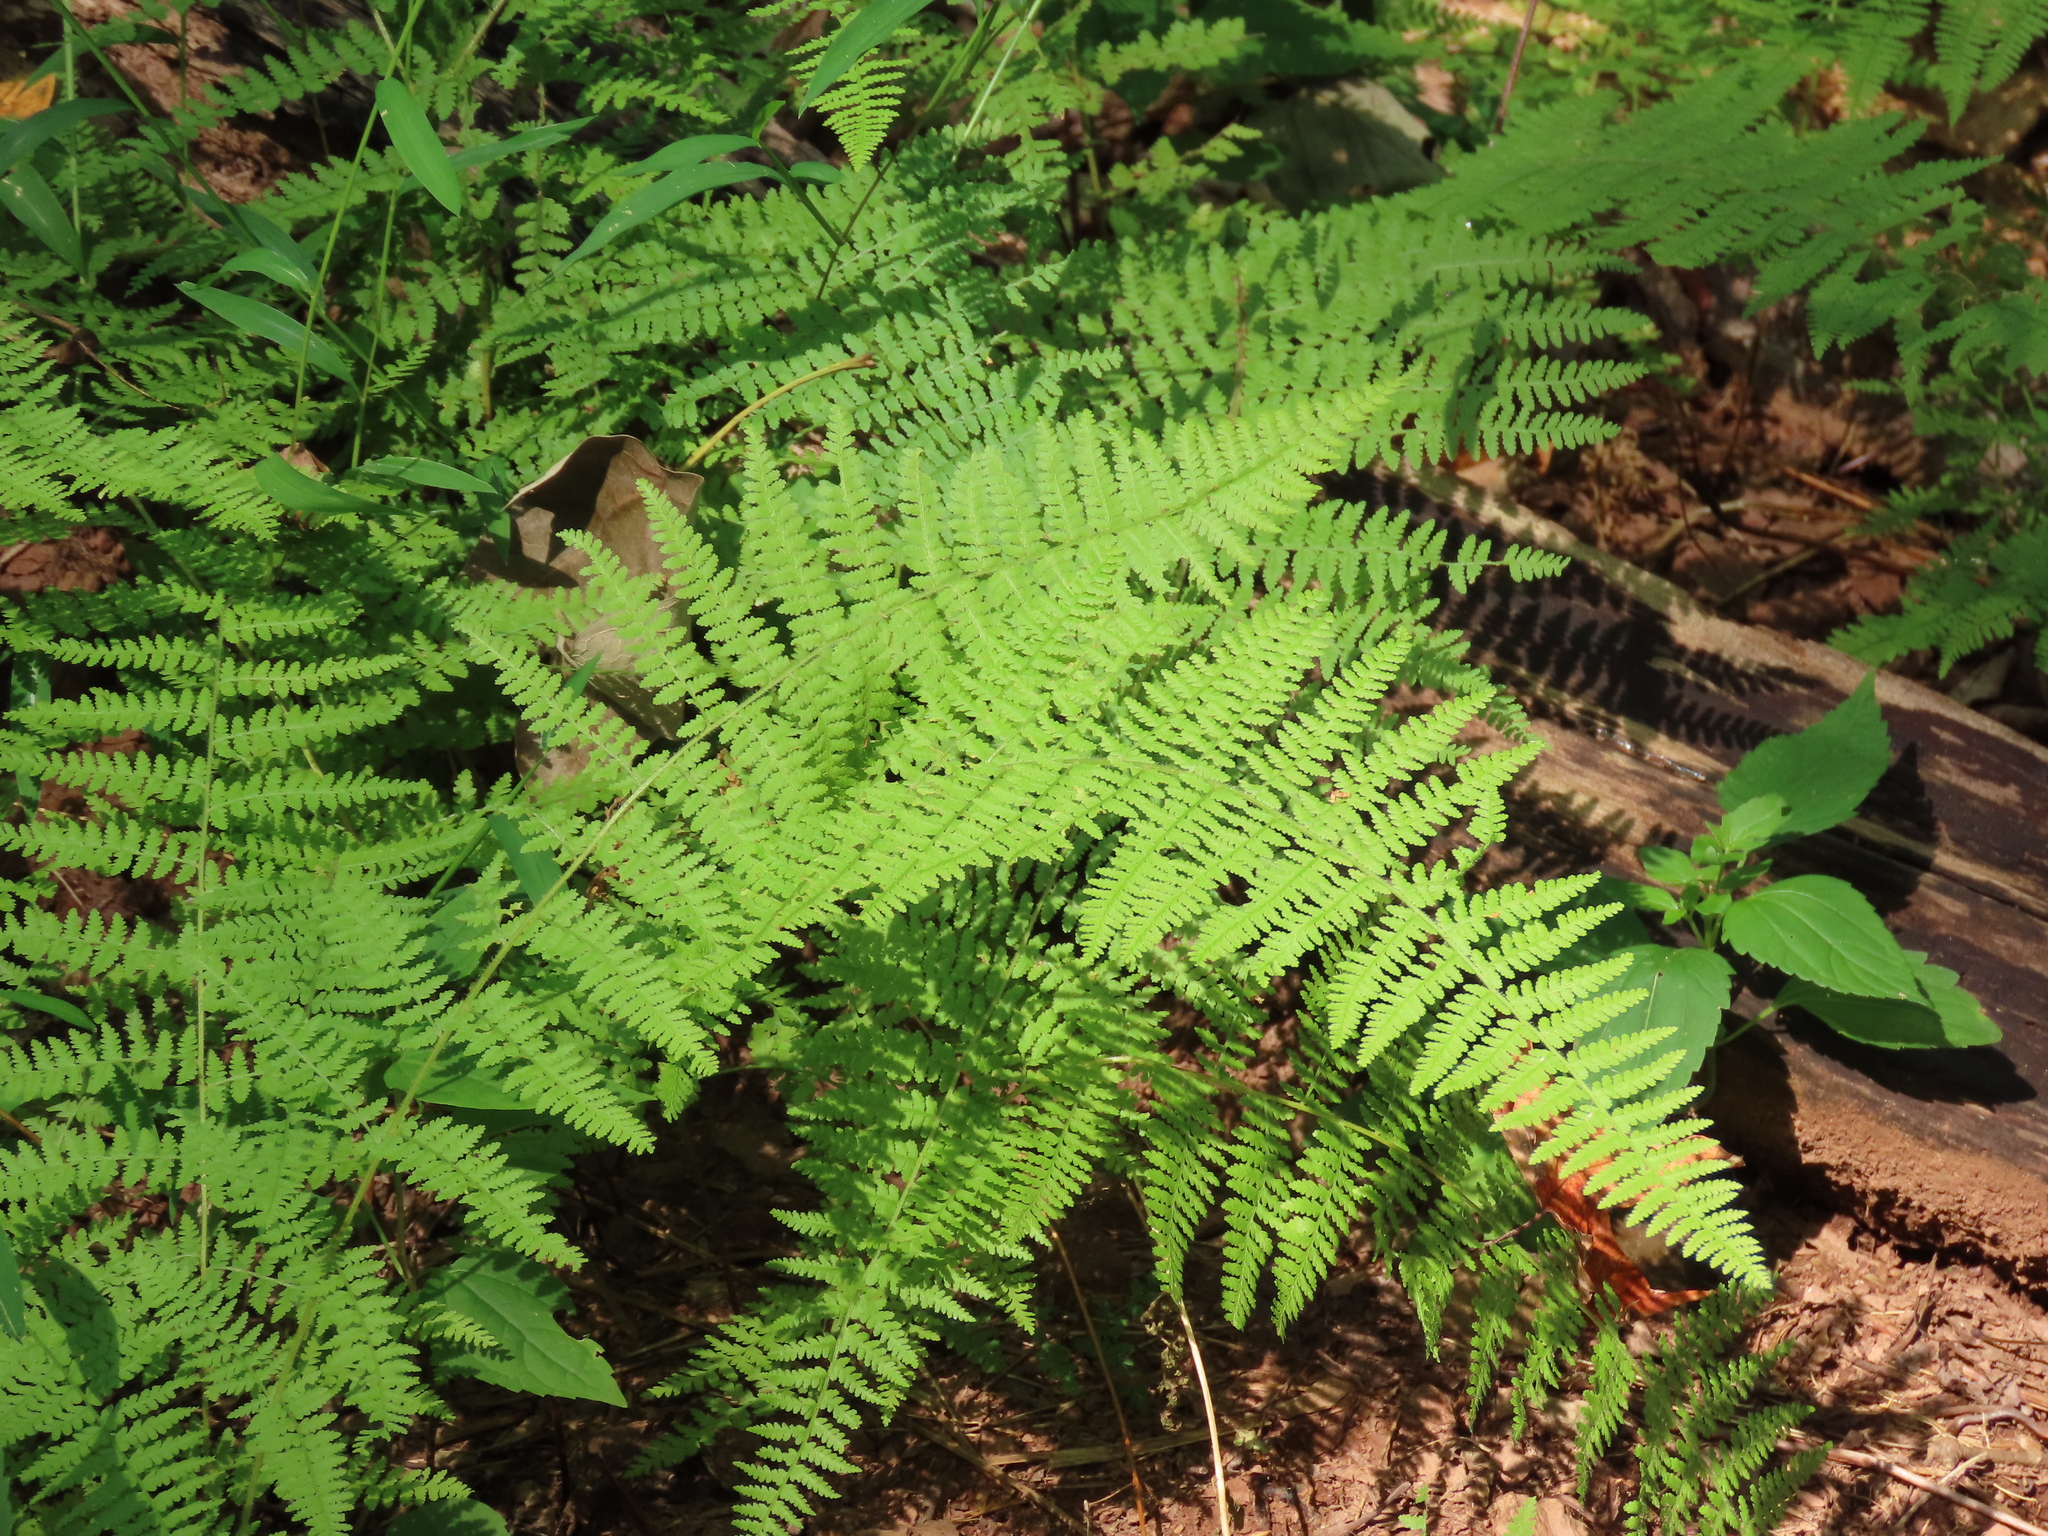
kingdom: Plantae
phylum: Tracheophyta
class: Polypodiopsida
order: Polypodiales
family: Dennstaedtiaceae
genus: Sitobolium
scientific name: Sitobolium punctilobum
